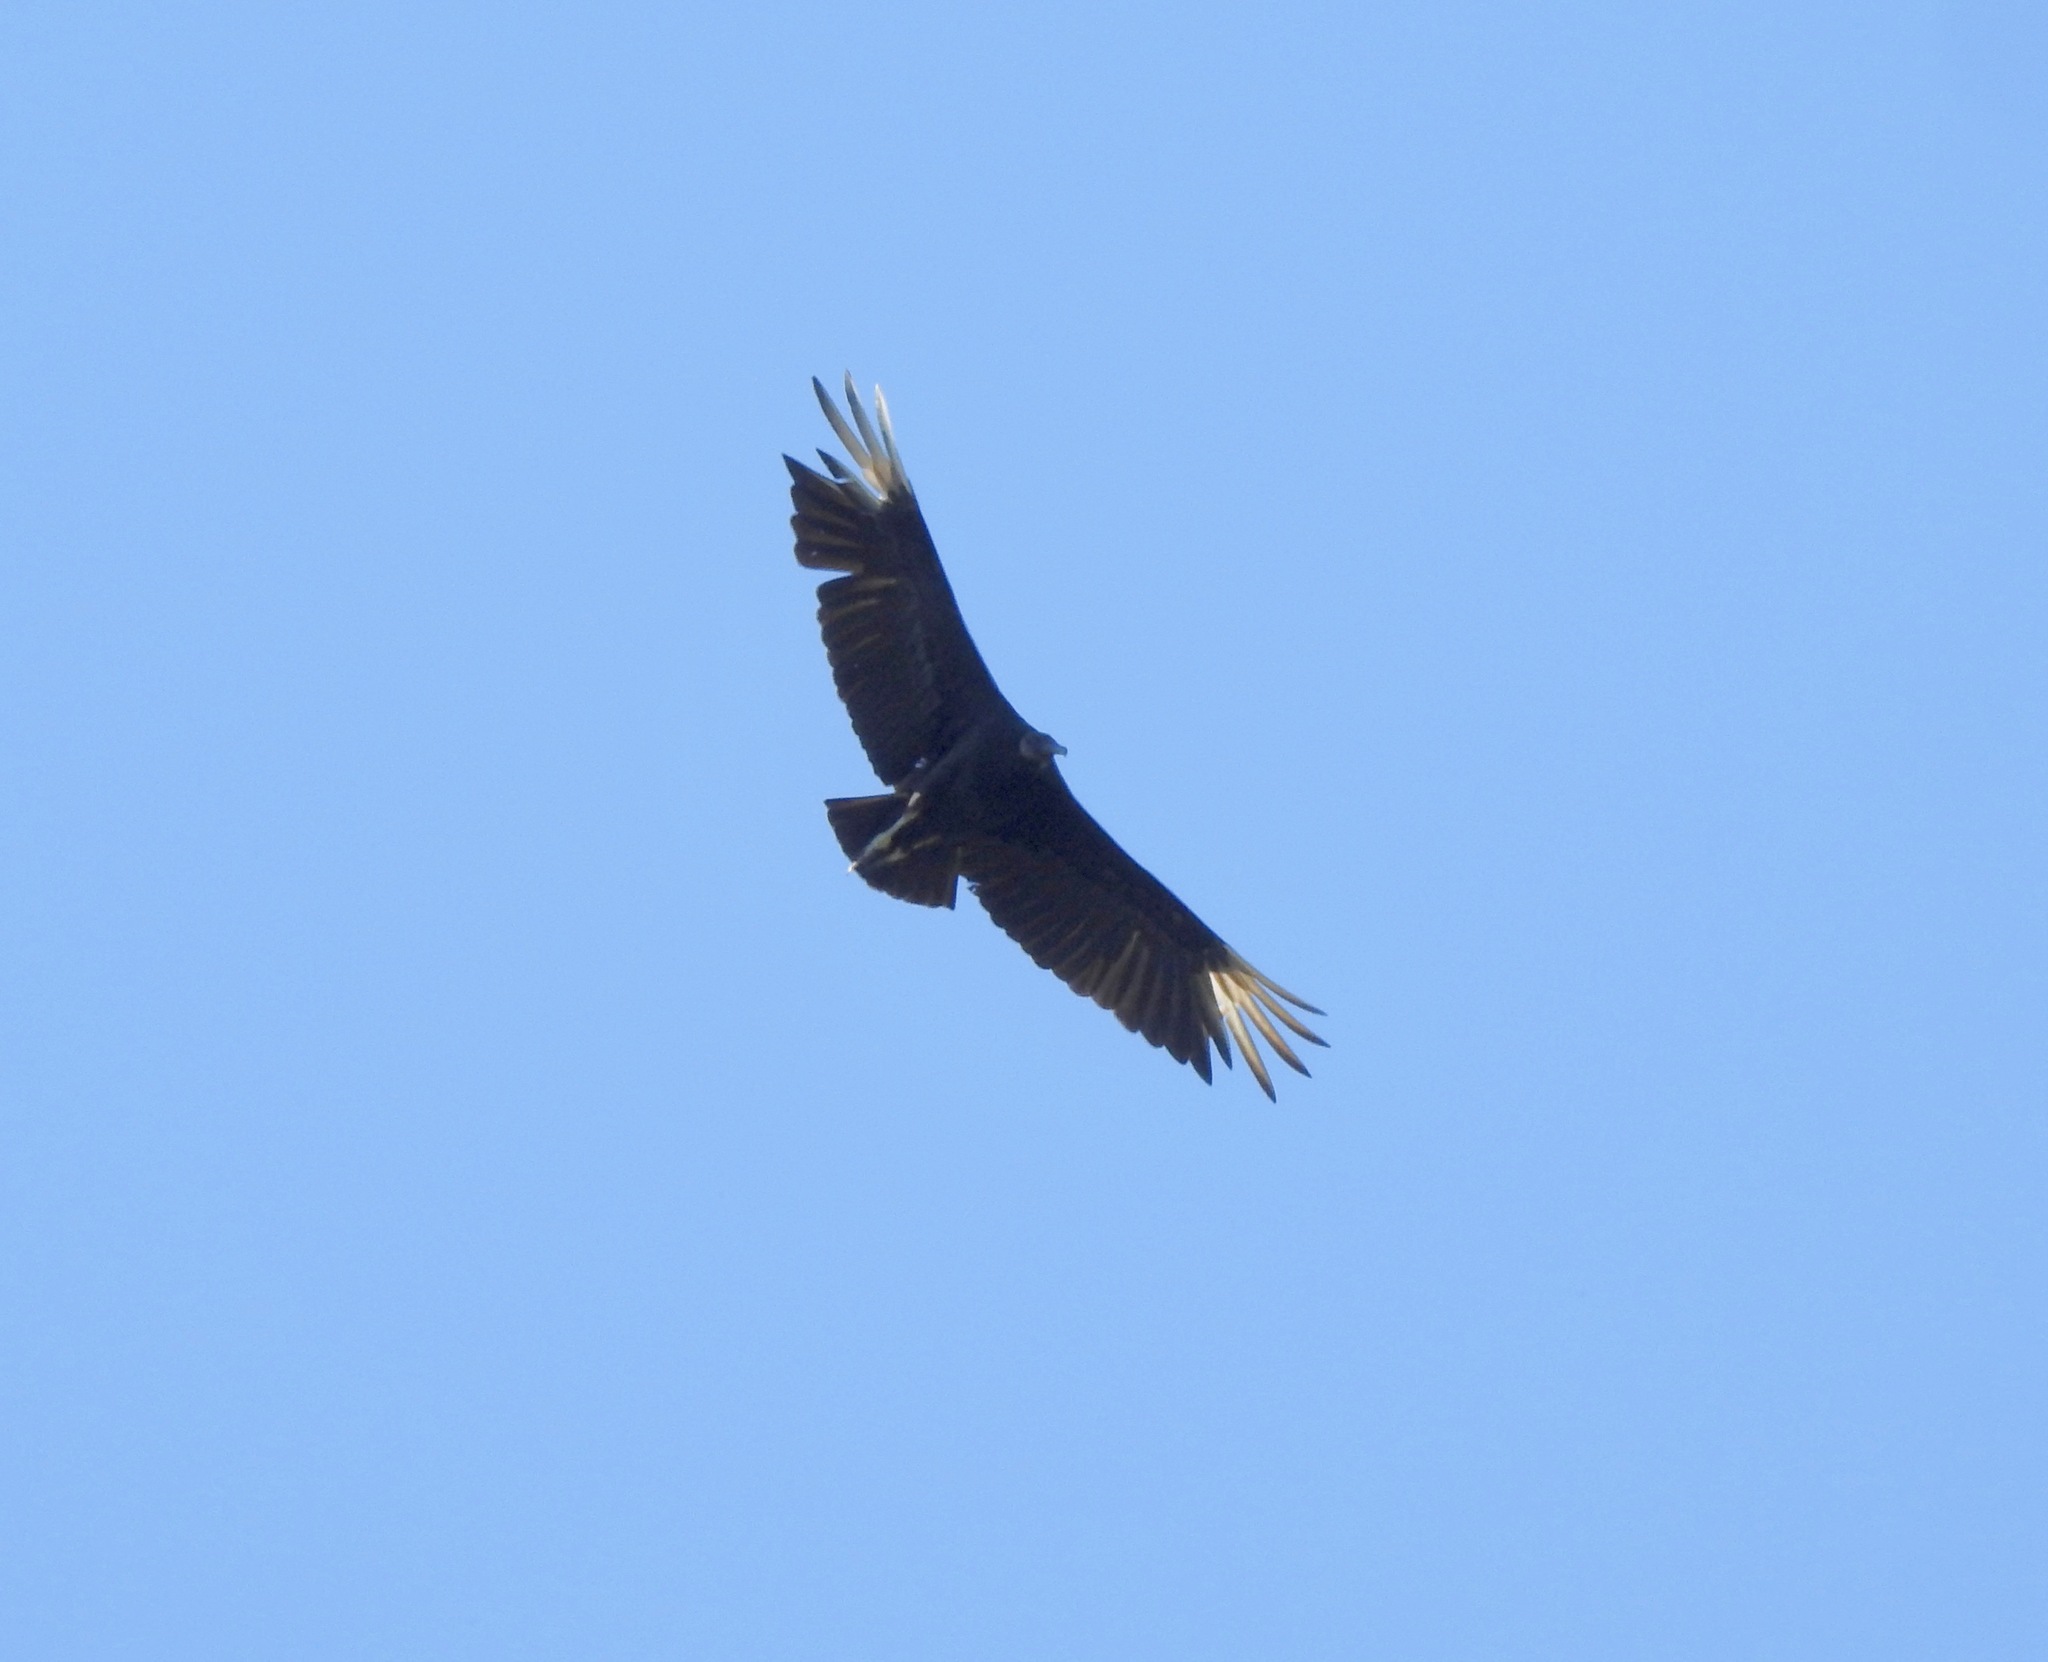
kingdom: Animalia
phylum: Chordata
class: Aves
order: Accipitriformes
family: Cathartidae
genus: Coragyps
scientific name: Coragyps atratus
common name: Black vulture
